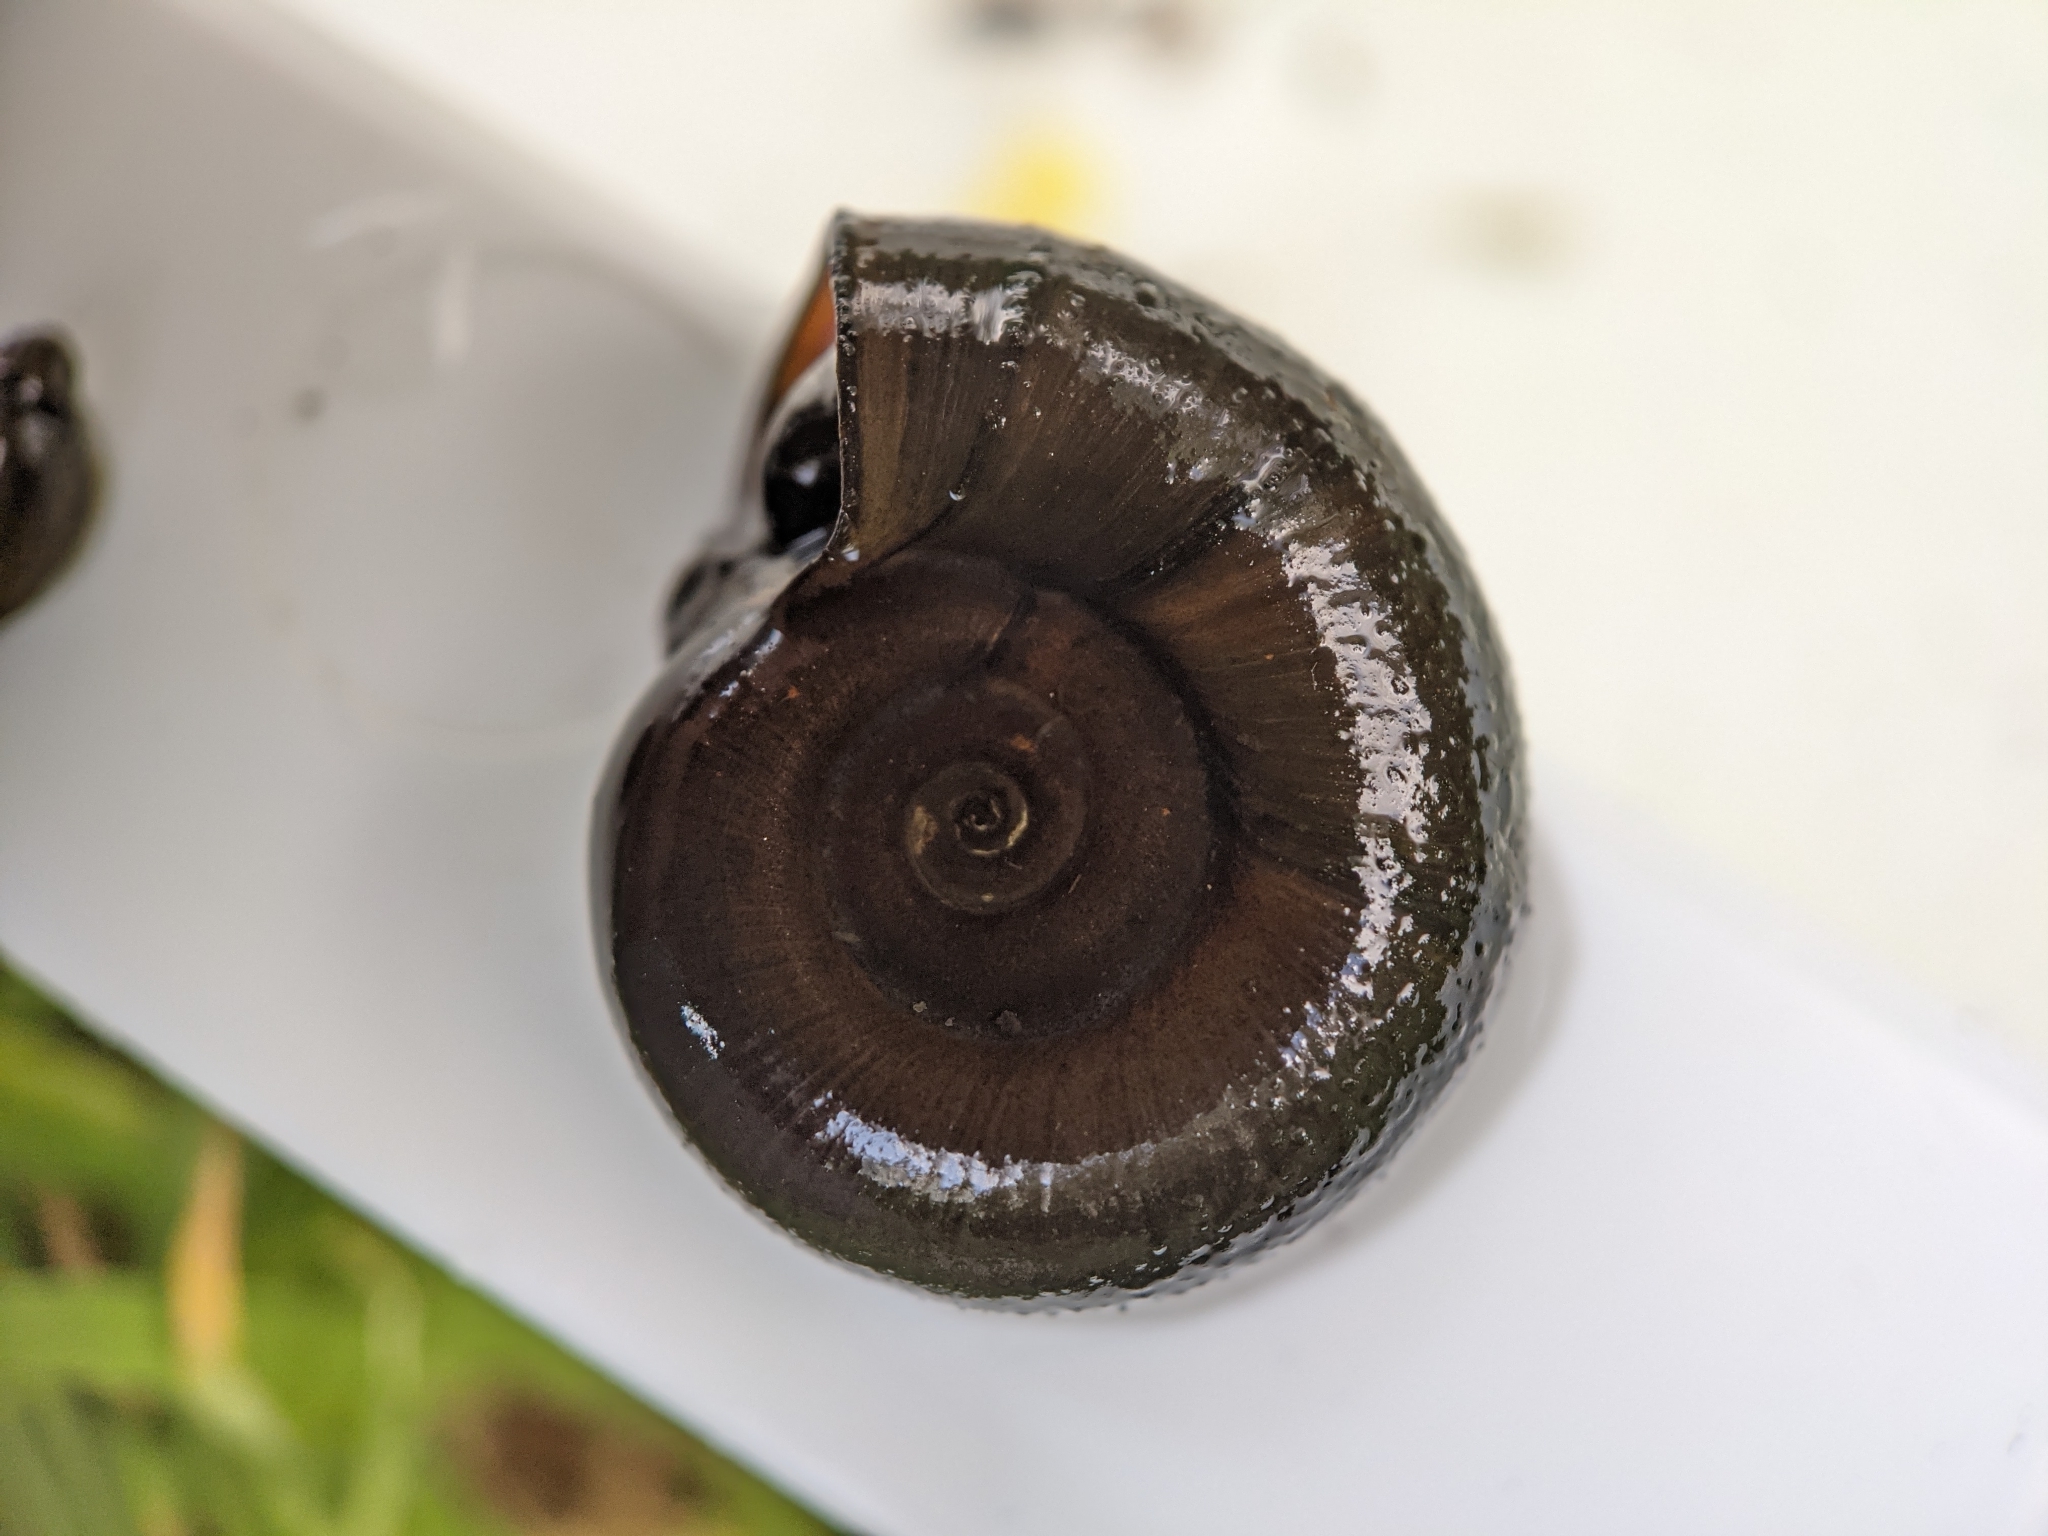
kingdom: Animalia
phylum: Mollusca
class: Gastropoda
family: Planorbidae
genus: Planorbarius
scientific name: Planorbarius corneus
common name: Great ramshorn
